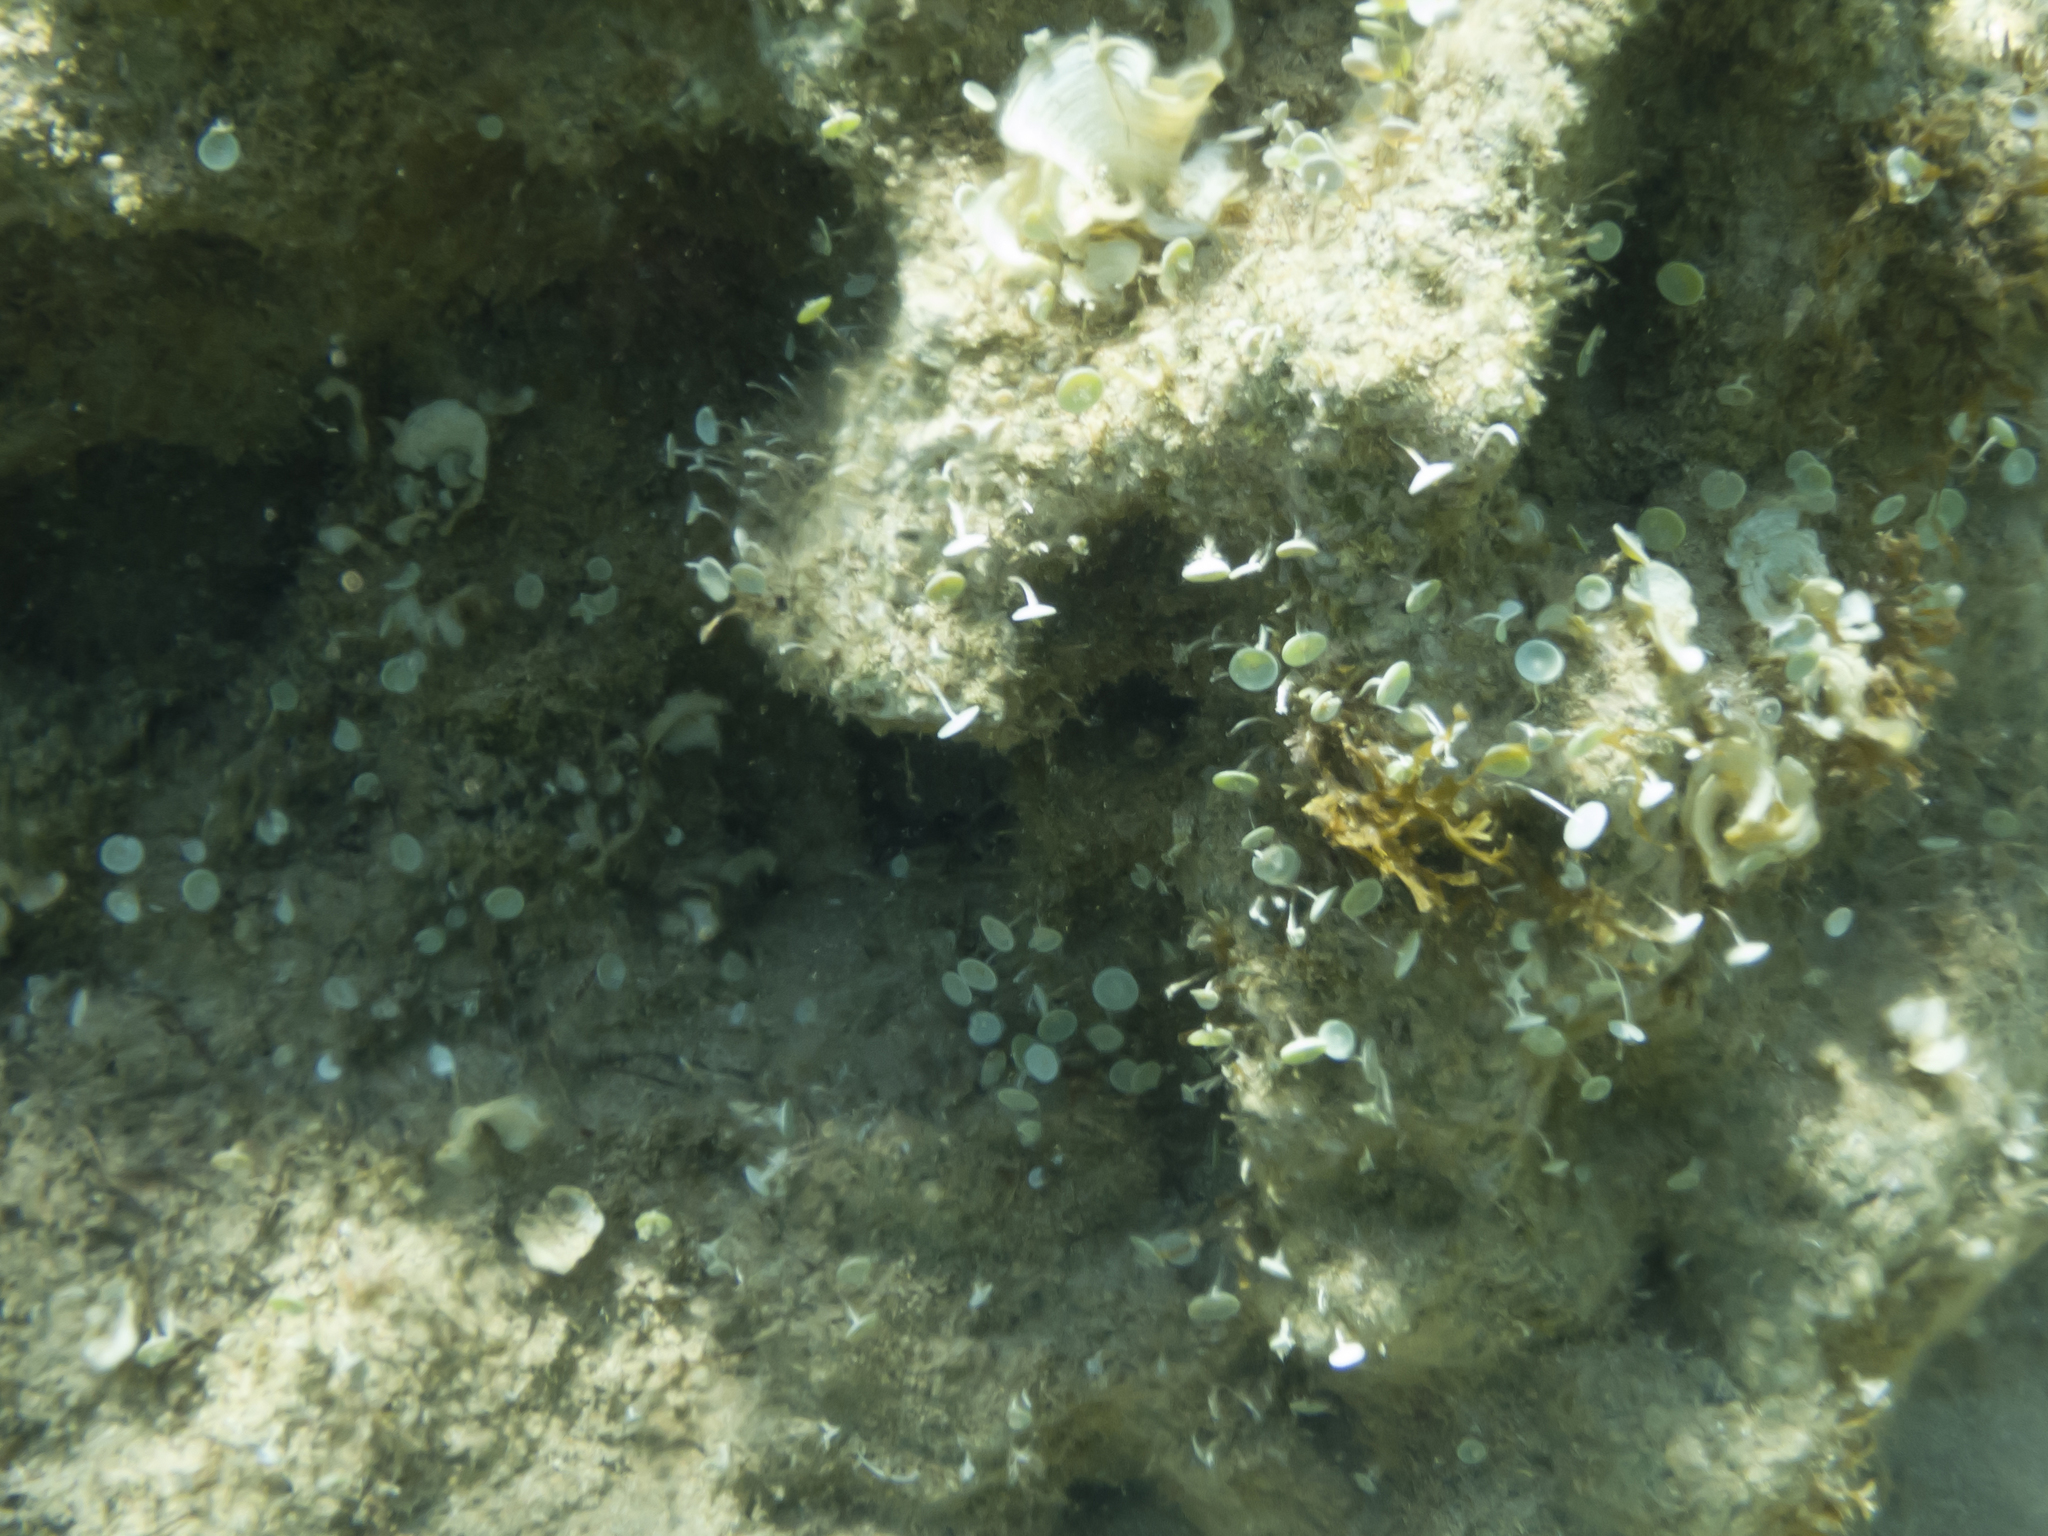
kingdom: Plantae
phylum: Chlorophyta
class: Ulvophyceae
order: Dasycladales
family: Polyphysaceae
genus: Acetabularia
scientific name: Acetabularia acetabulum
